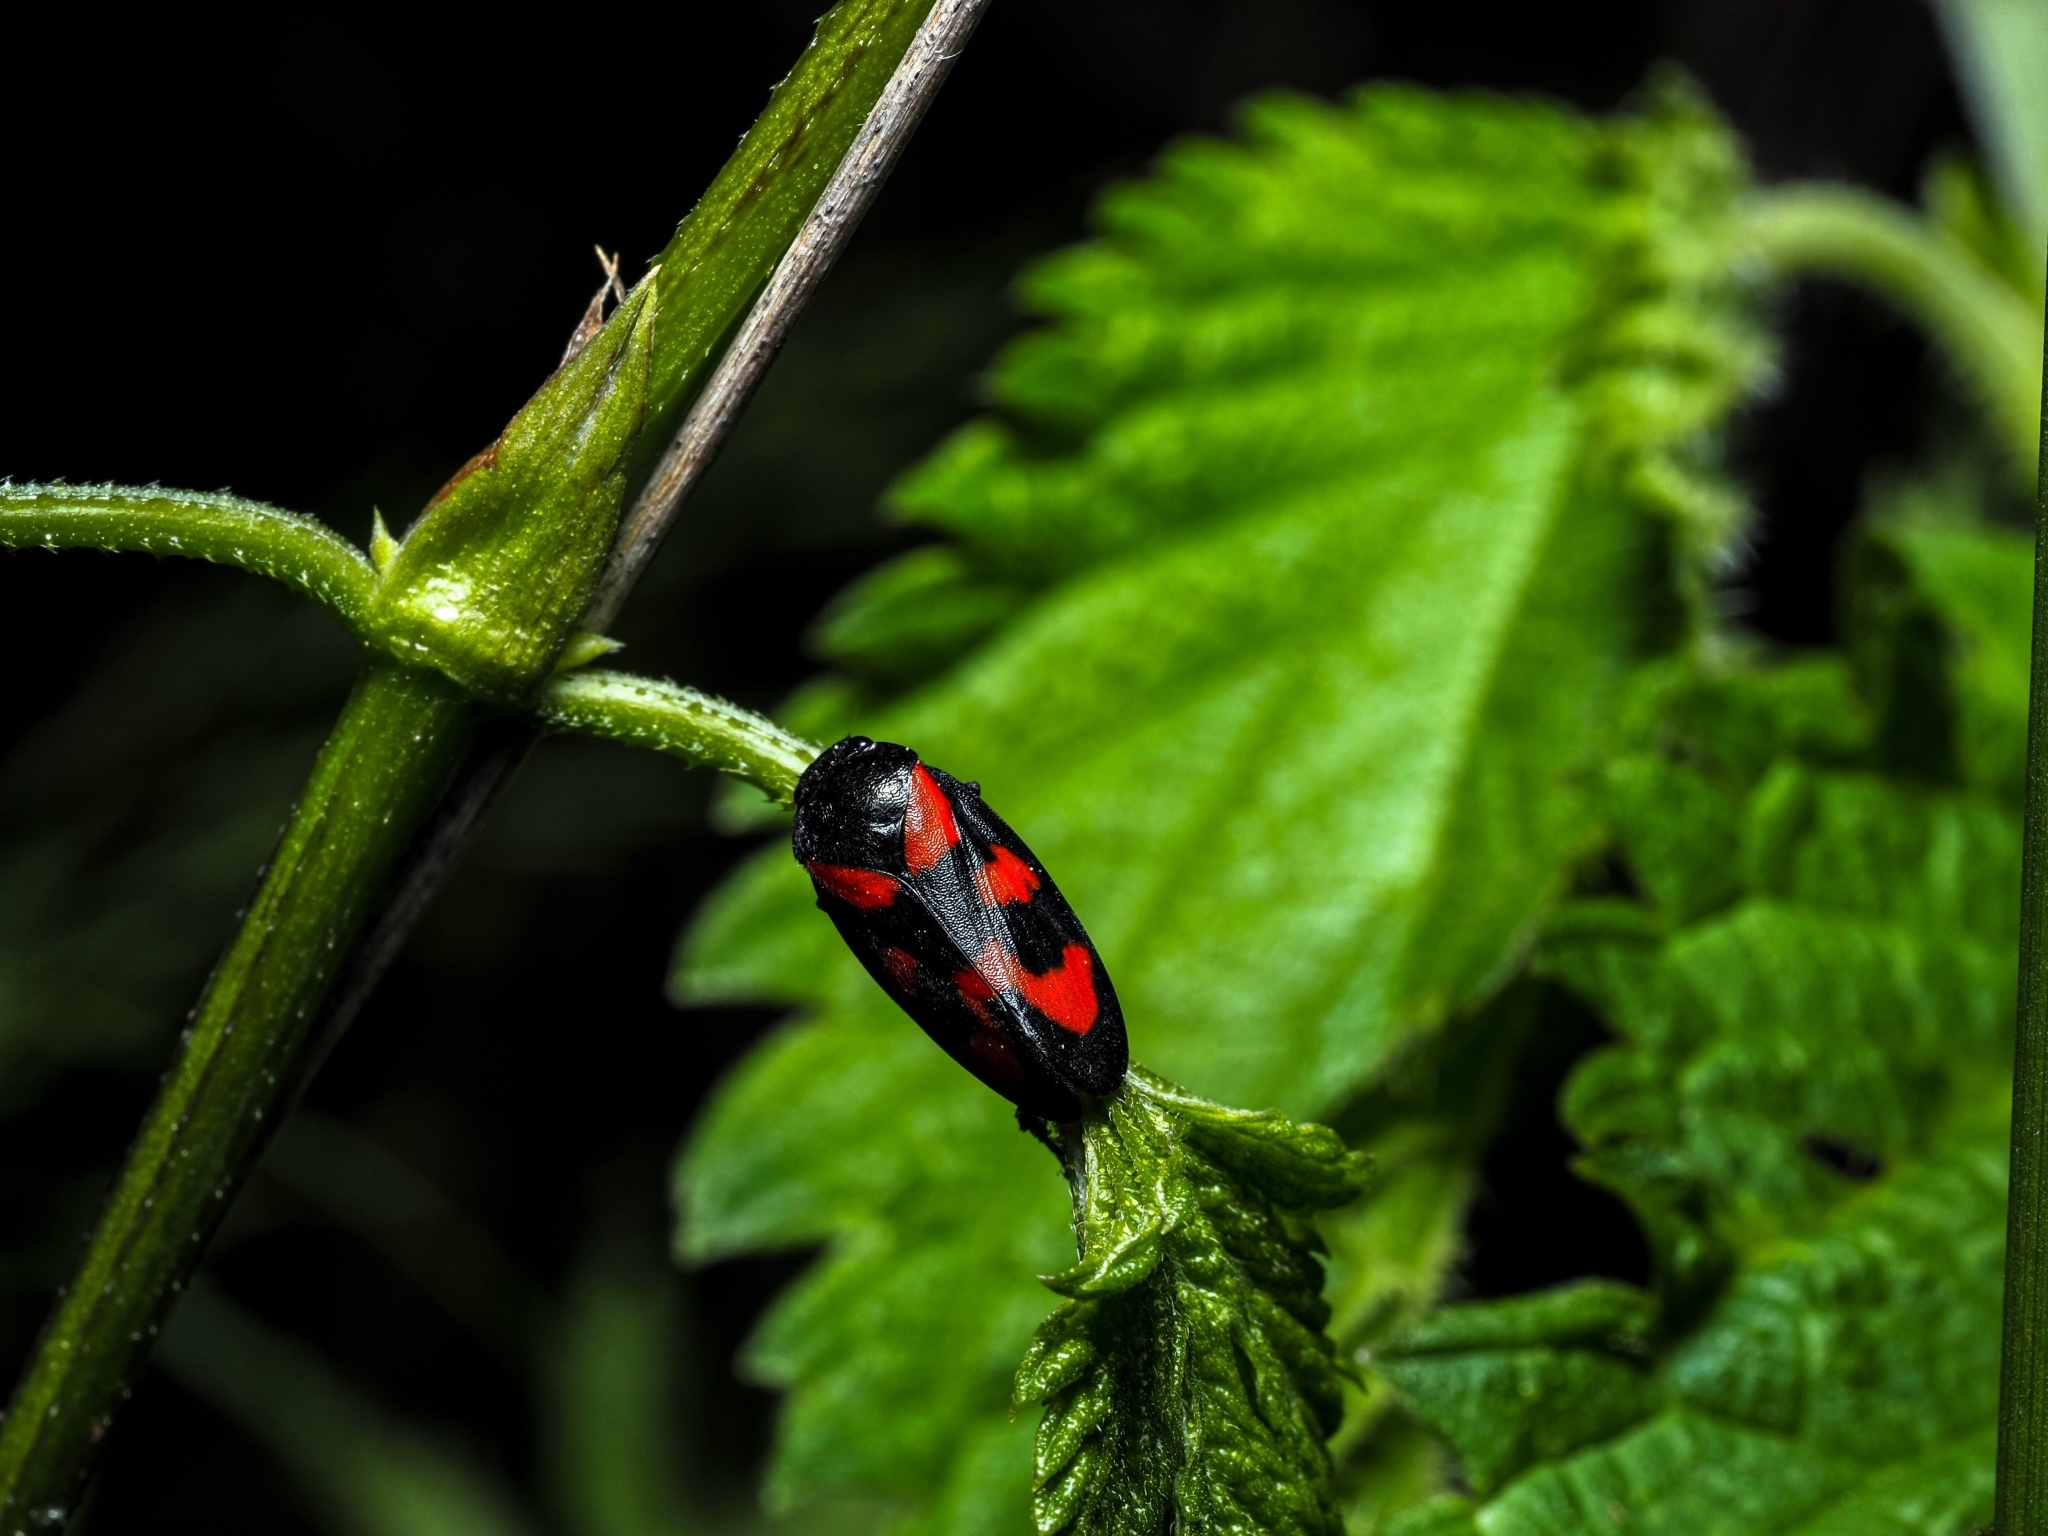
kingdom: Animalia
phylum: Arthropoda
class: Insecta
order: Hemiptera
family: Cercopidae
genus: Cercopis
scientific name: Cercopis vulnerata
